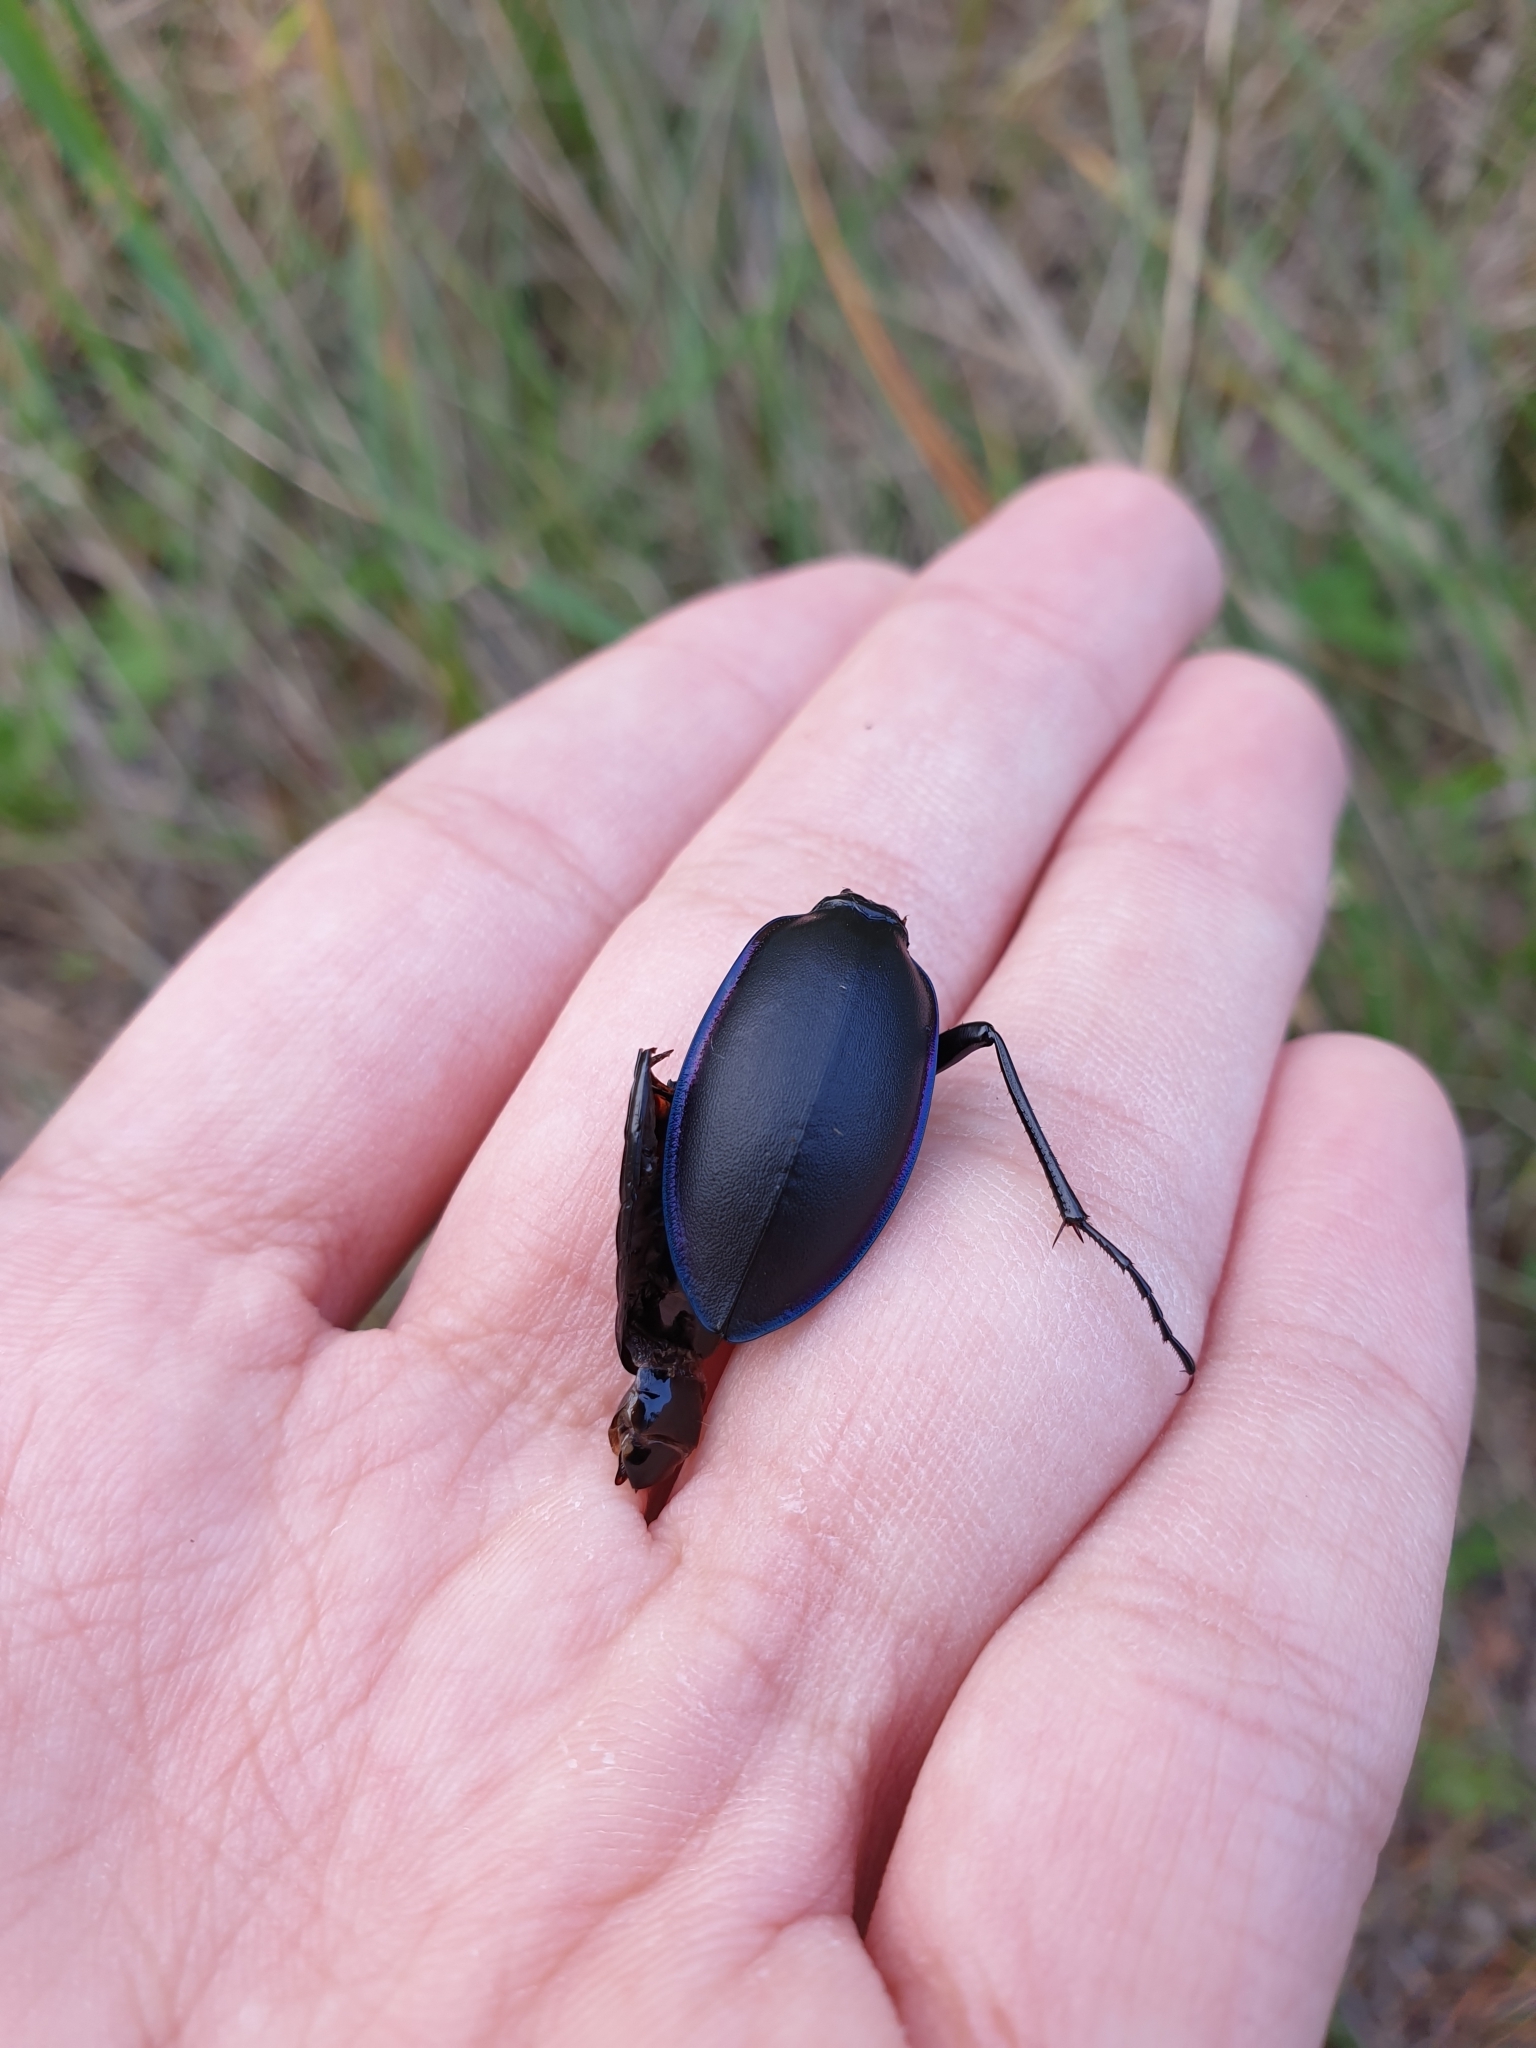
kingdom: Animalia
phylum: Arthropoda
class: Insecta
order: Coleoptera
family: Carabidae
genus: Carabus
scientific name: Carabus violaceus
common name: Violet ground beetle
